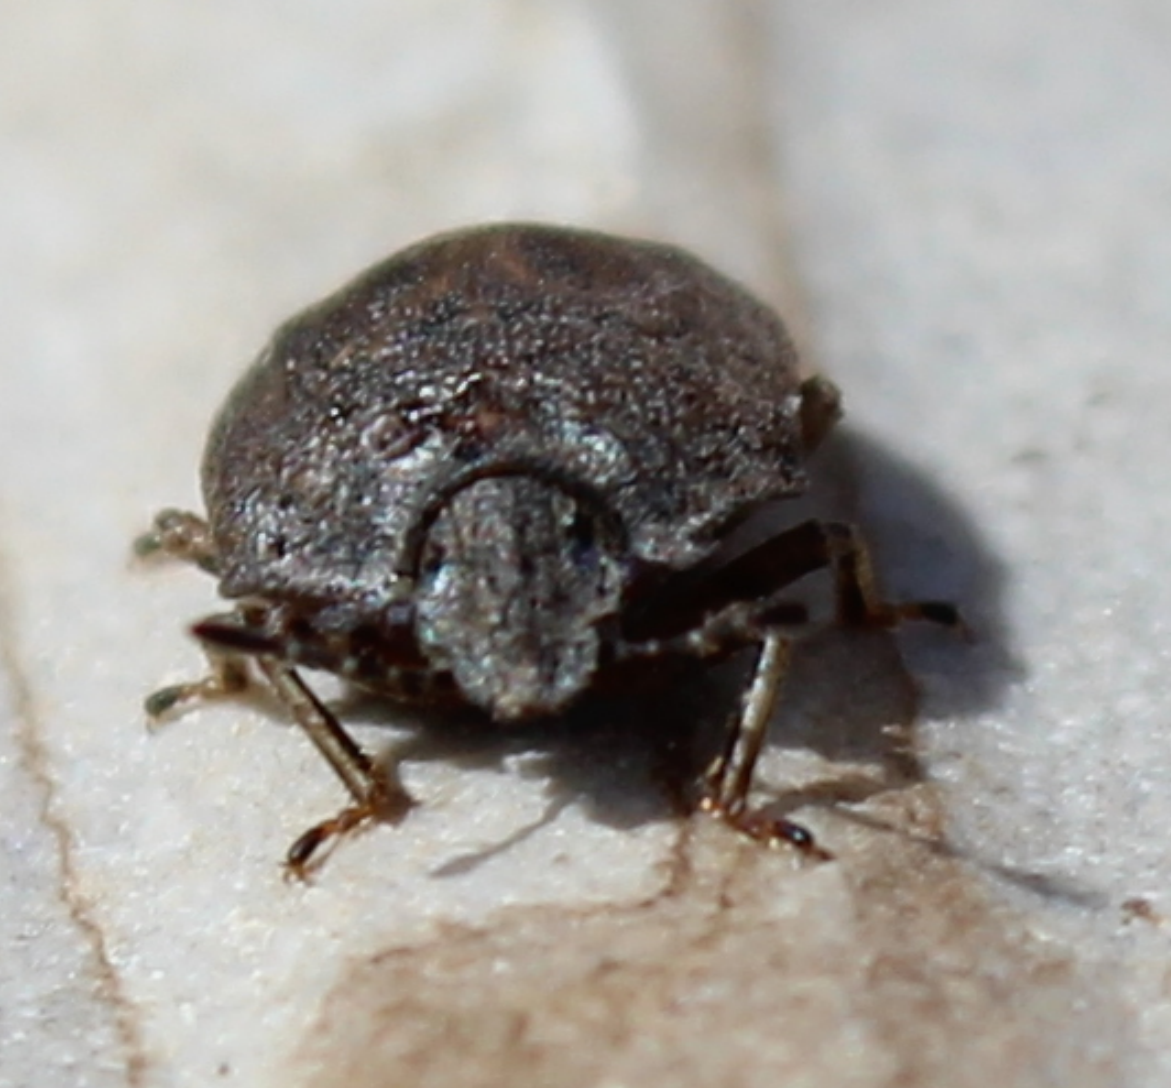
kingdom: Animalia
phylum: Arthropoda
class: Insecta
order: Hemiptera
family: Pentatomidae
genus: Podops
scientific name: Podops inunctus
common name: Turtle bug
